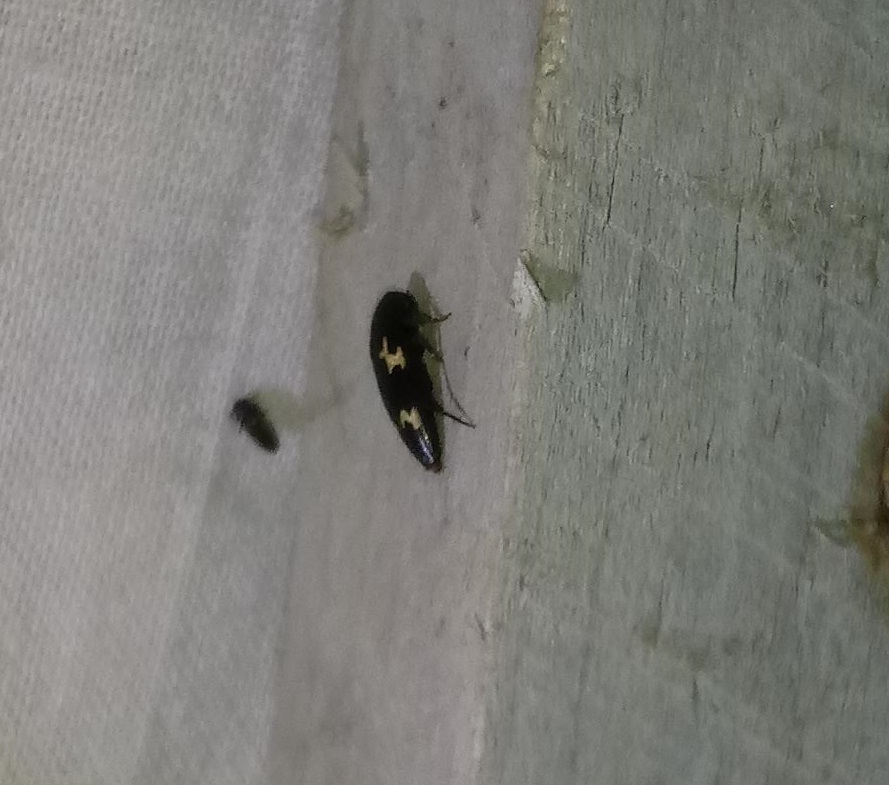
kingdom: Animalia
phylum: Arthropoda
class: Insecta
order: Coleoptera
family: Melandryidae
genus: Dircaea
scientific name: Dircaea liturata
